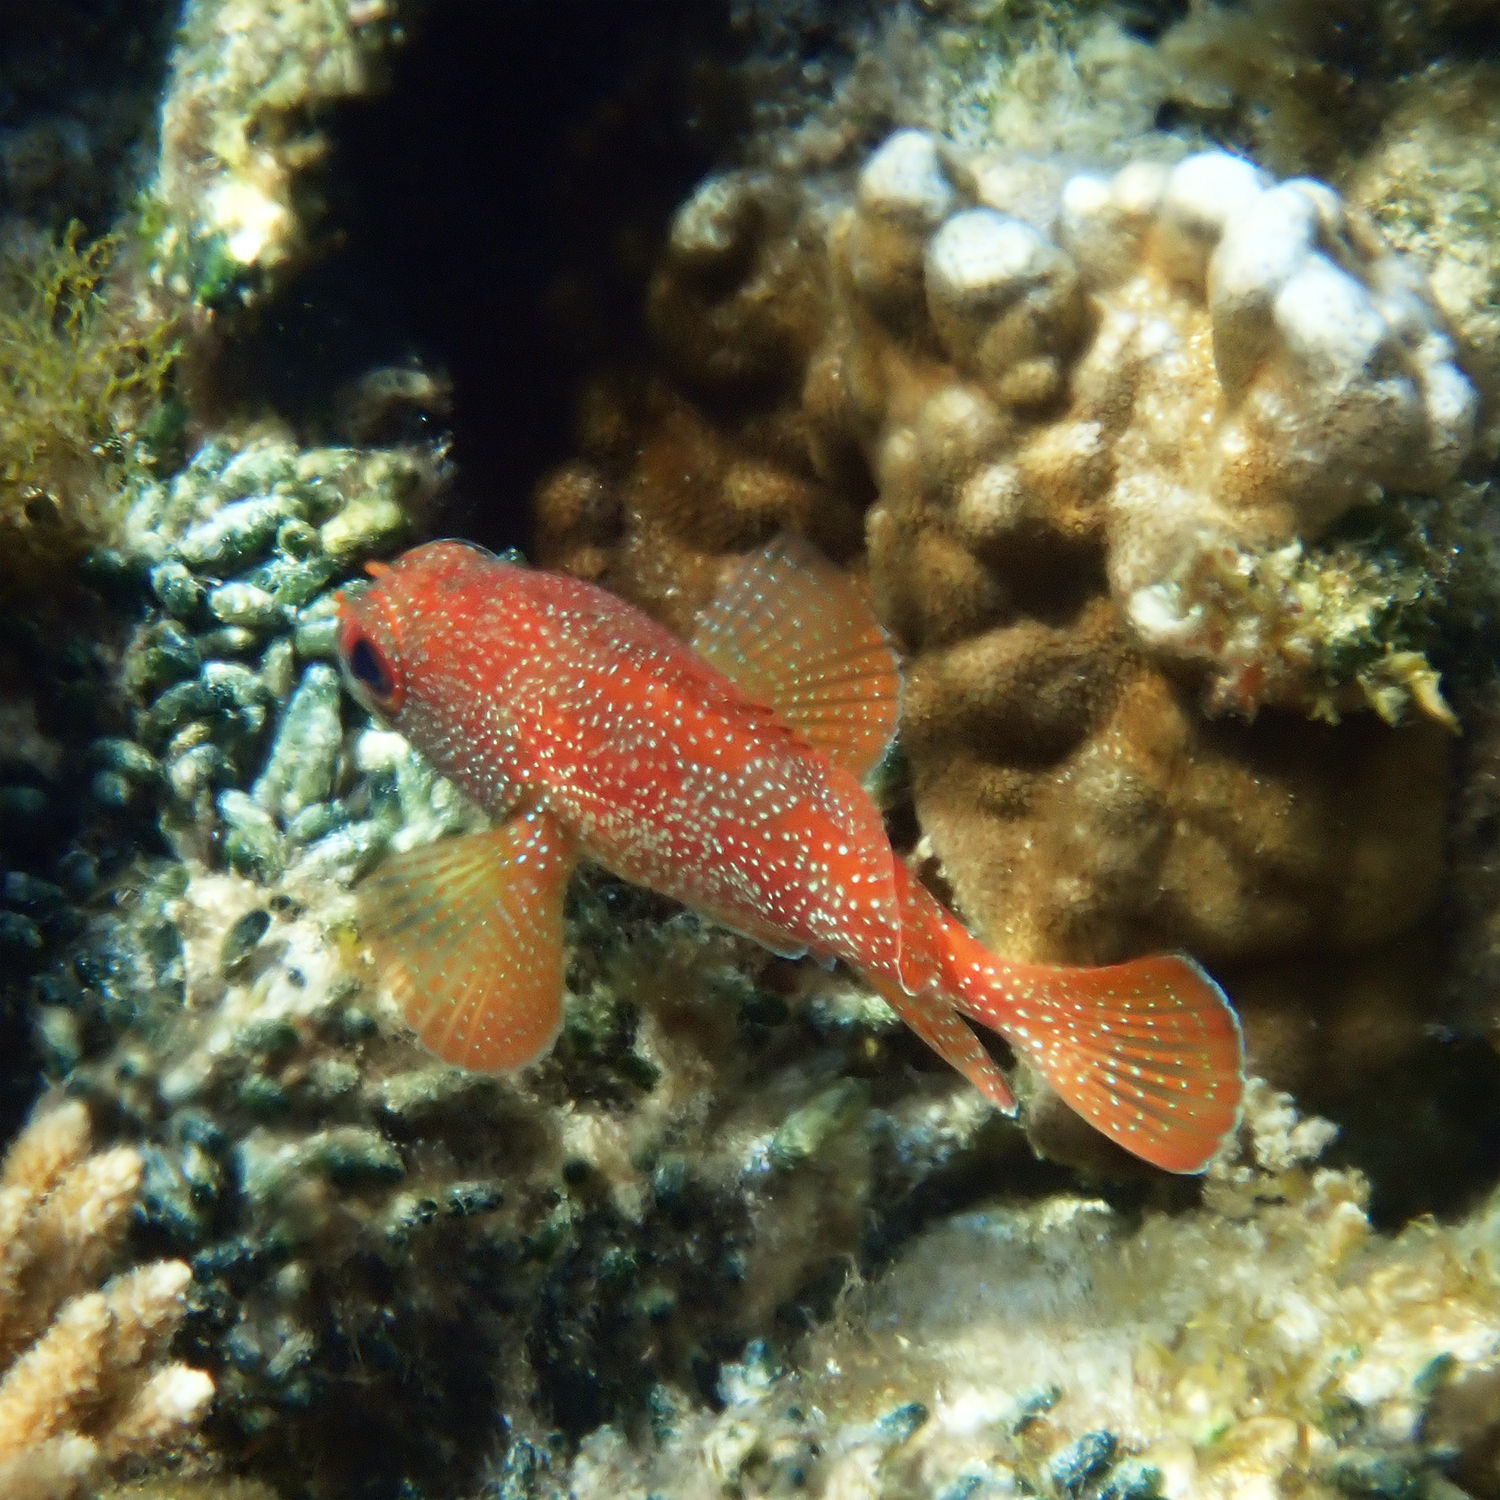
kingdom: Animalia
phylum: Chordata
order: Perciformes
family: Serranidae
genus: Trachypoma
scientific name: Trachypoma macracanthus
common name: Toadstool grouper
